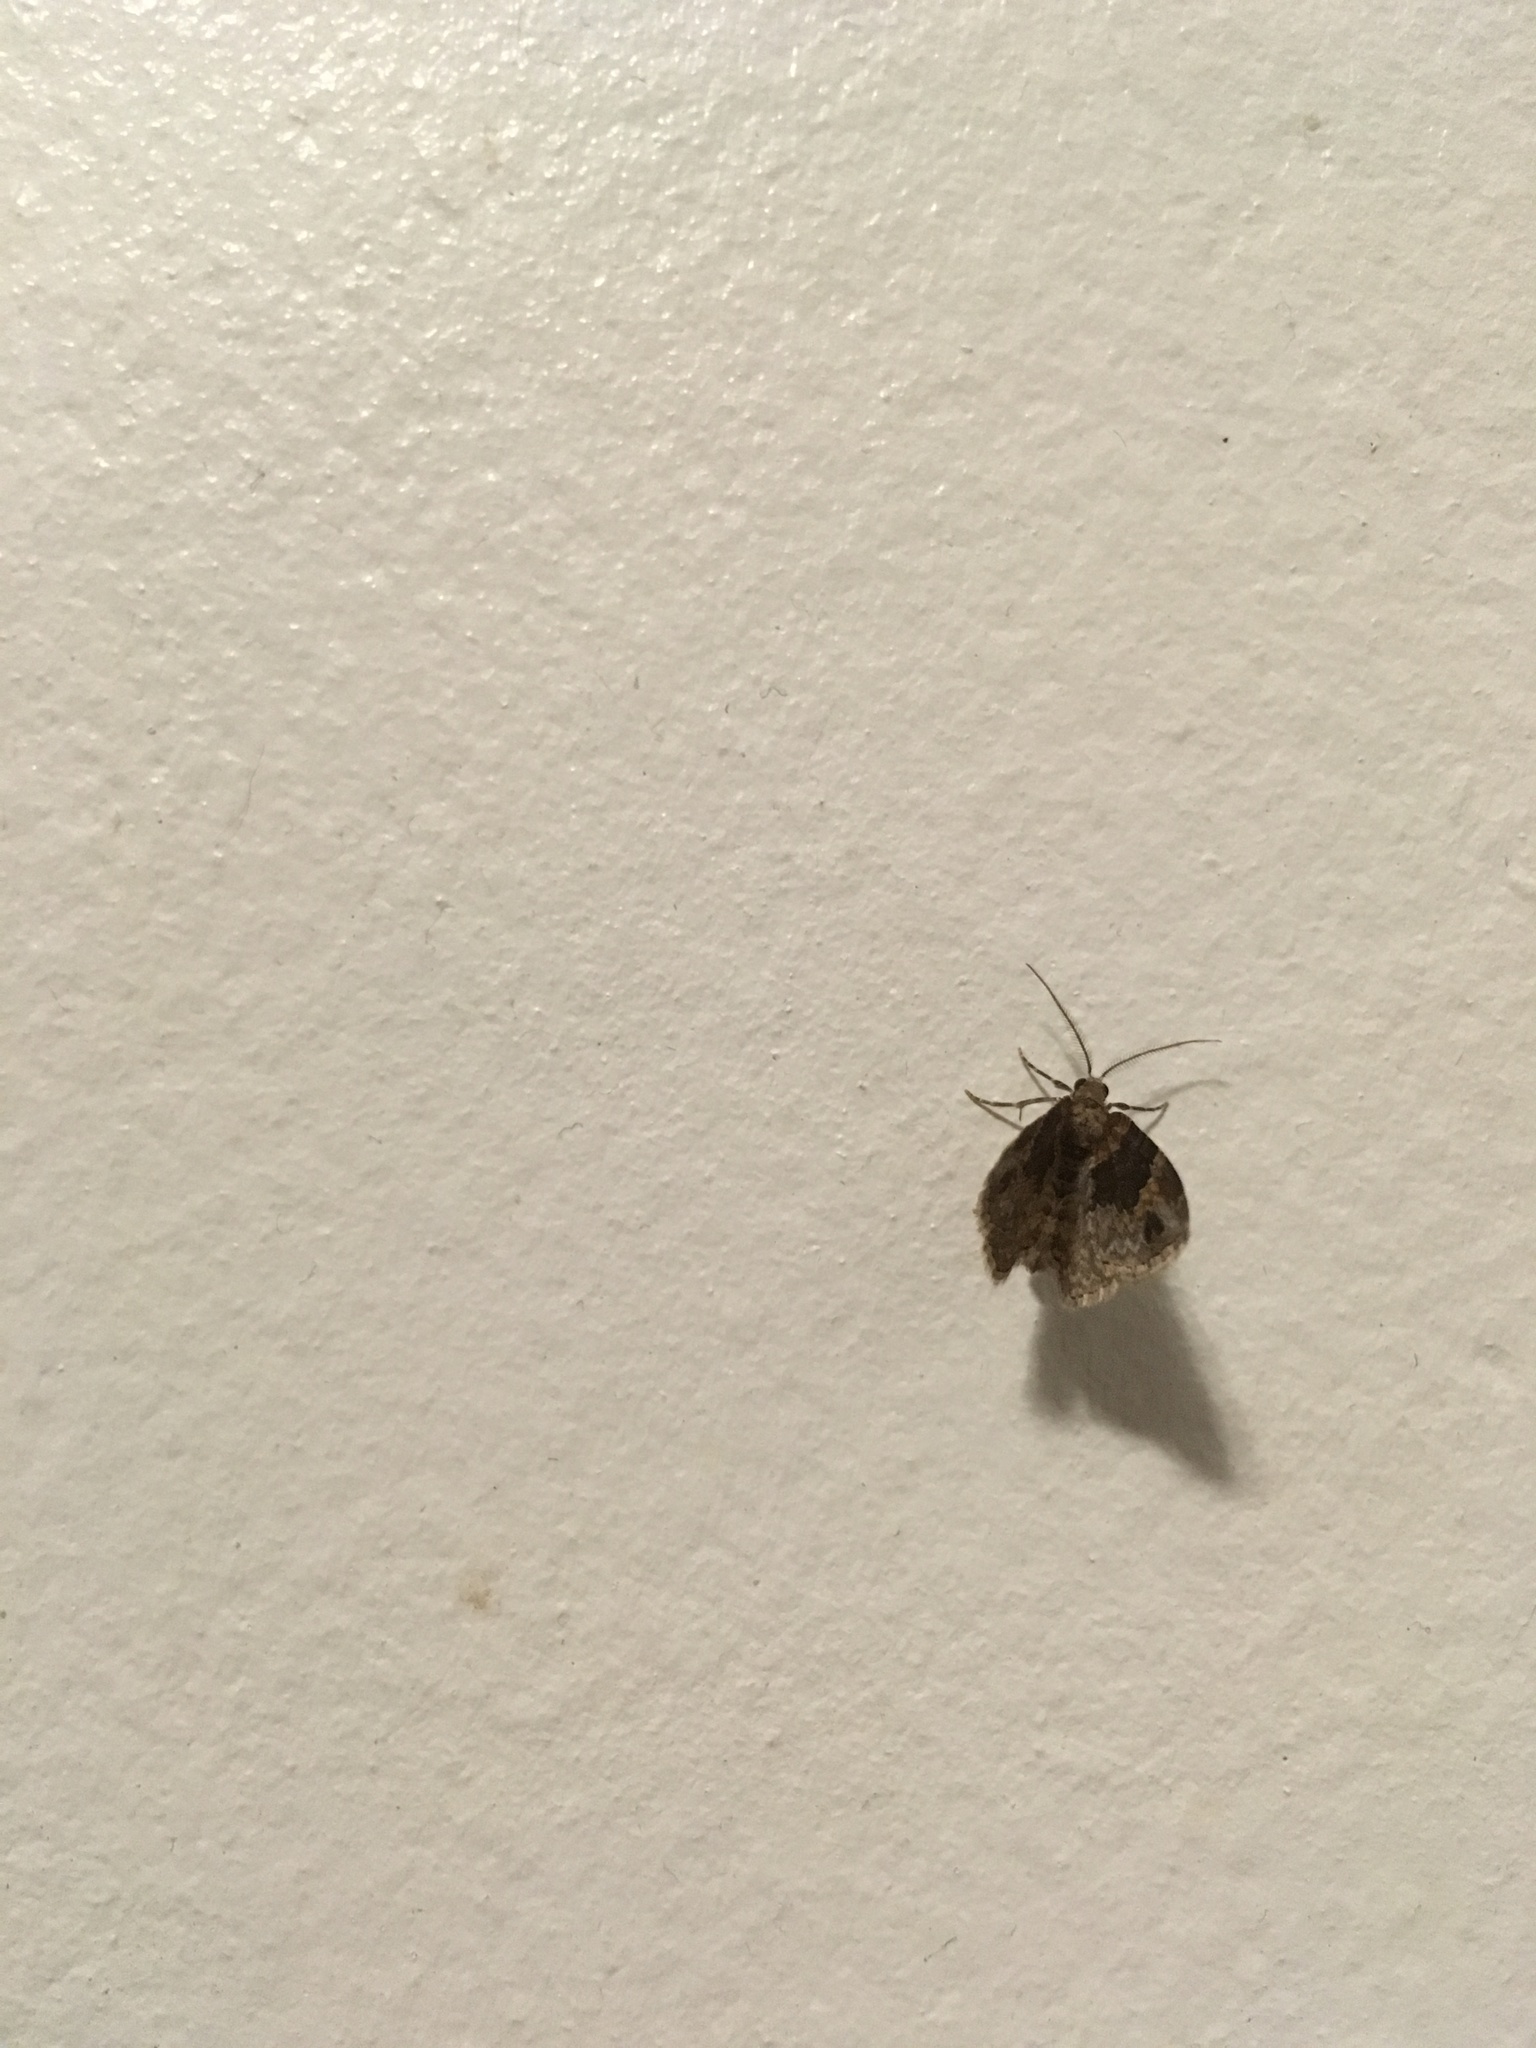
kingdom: Animalia
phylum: Arthropoda
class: Insecta
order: Lepidoptera
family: Geometridae
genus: Xanthorhoe
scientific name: Xanthorhoe ferrugata
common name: Dark-barred twin-spot carpet
